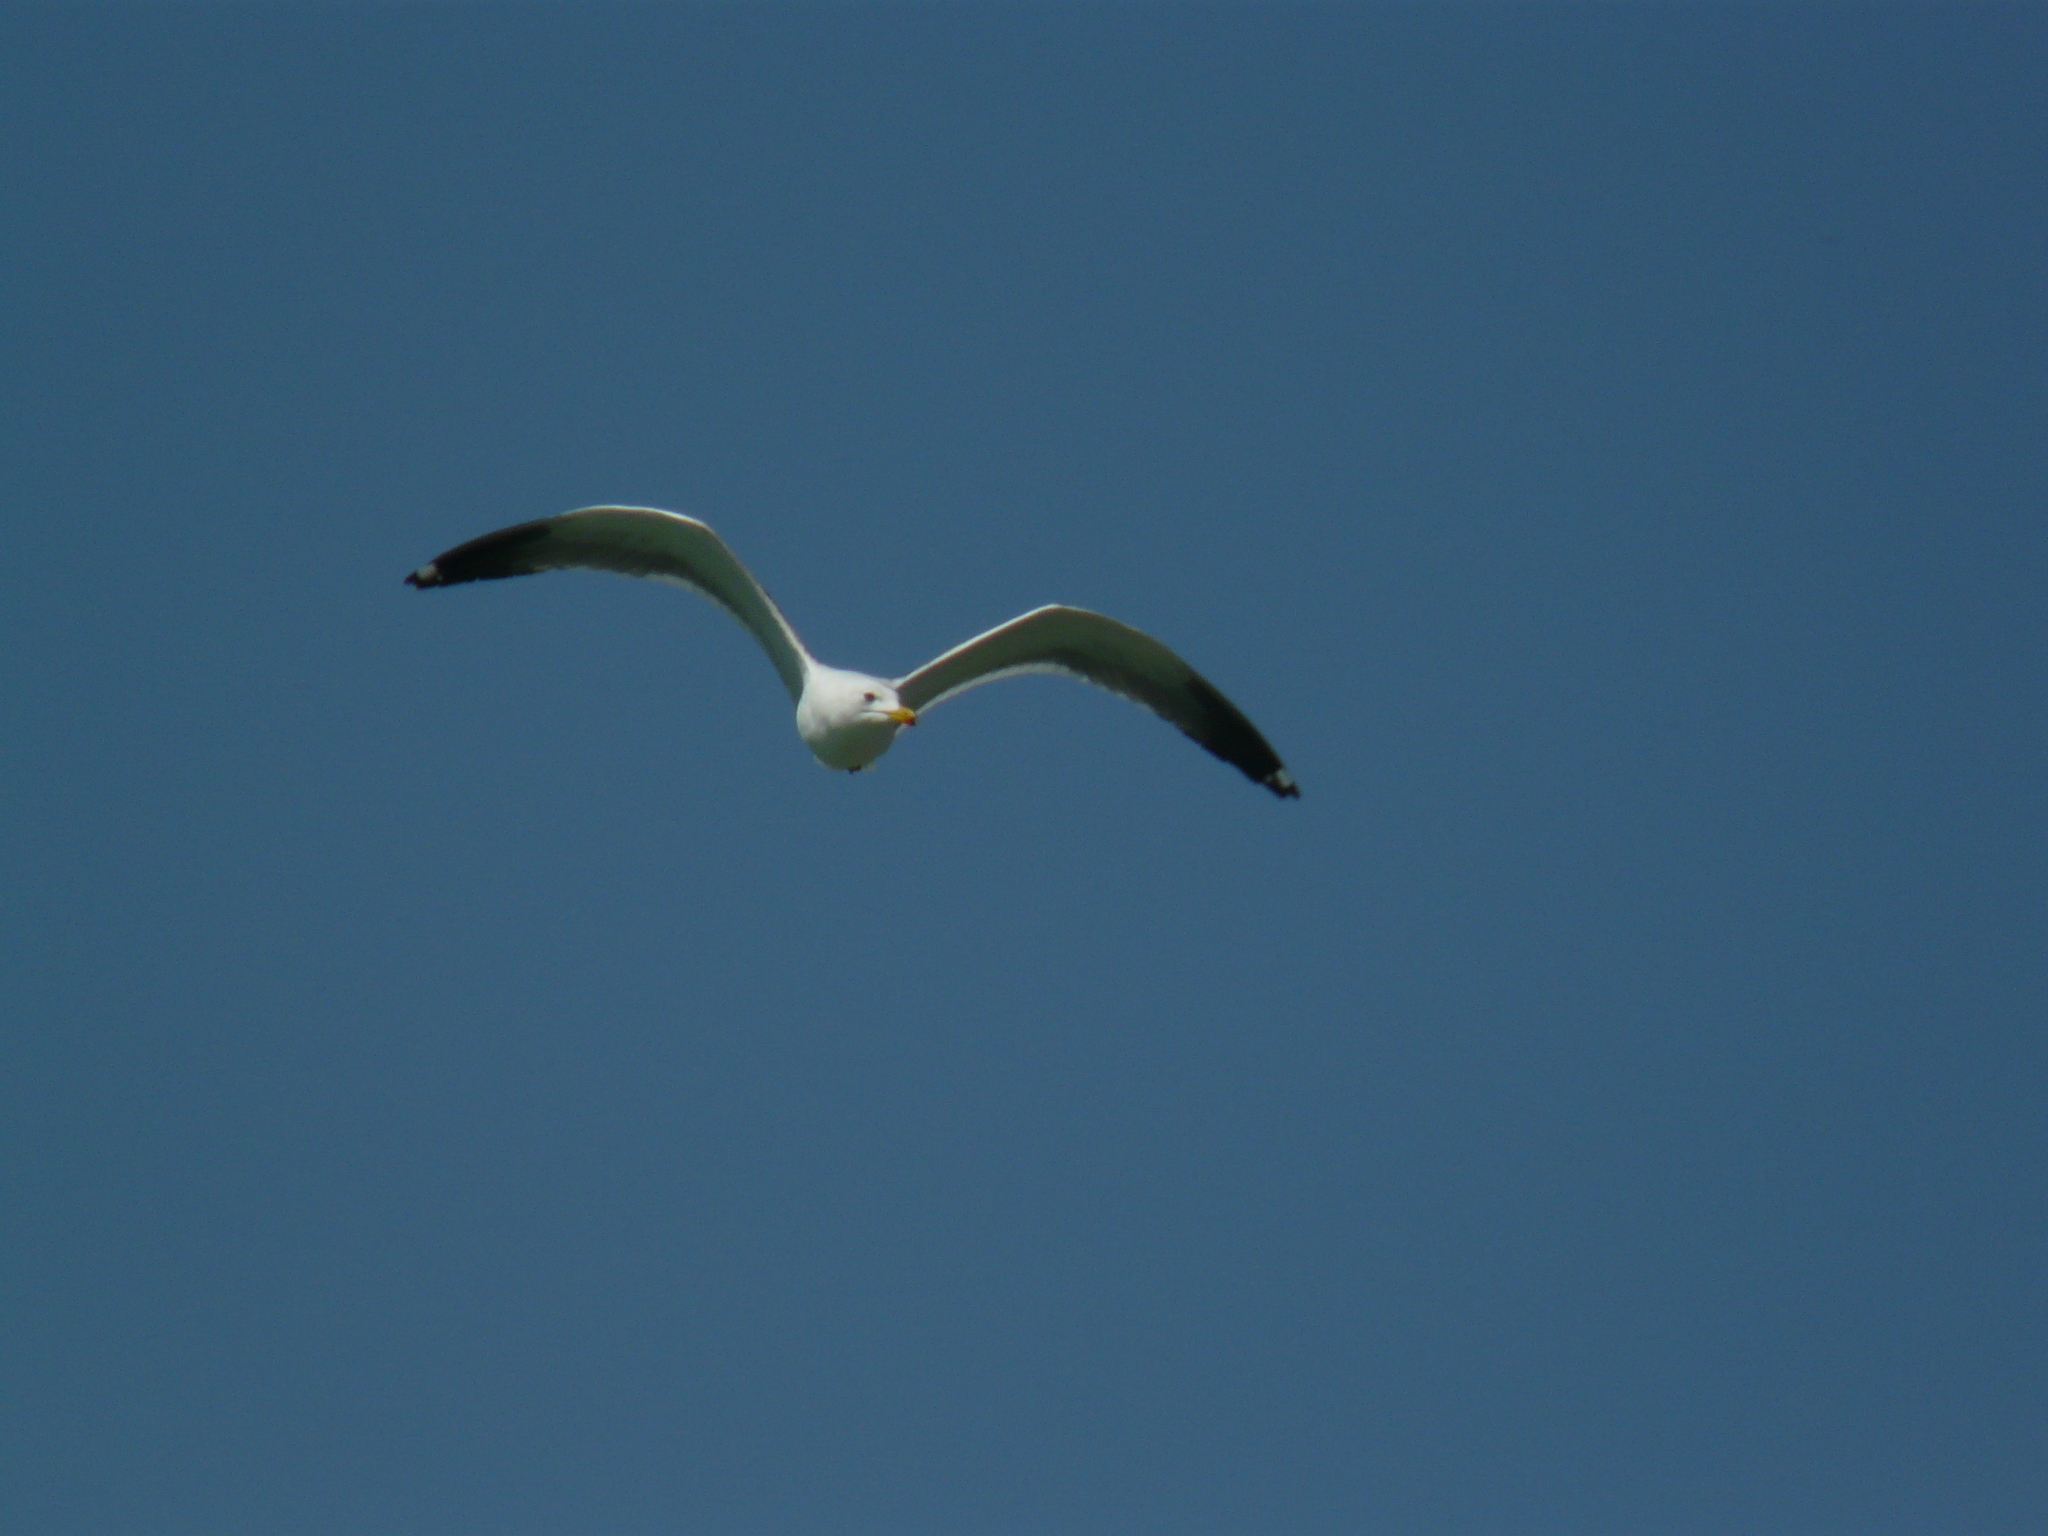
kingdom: Animalia
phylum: Chordata
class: Aves
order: Charadriiformes
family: Laridae
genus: Larus
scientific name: Larus armenicus
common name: Armenian gull
